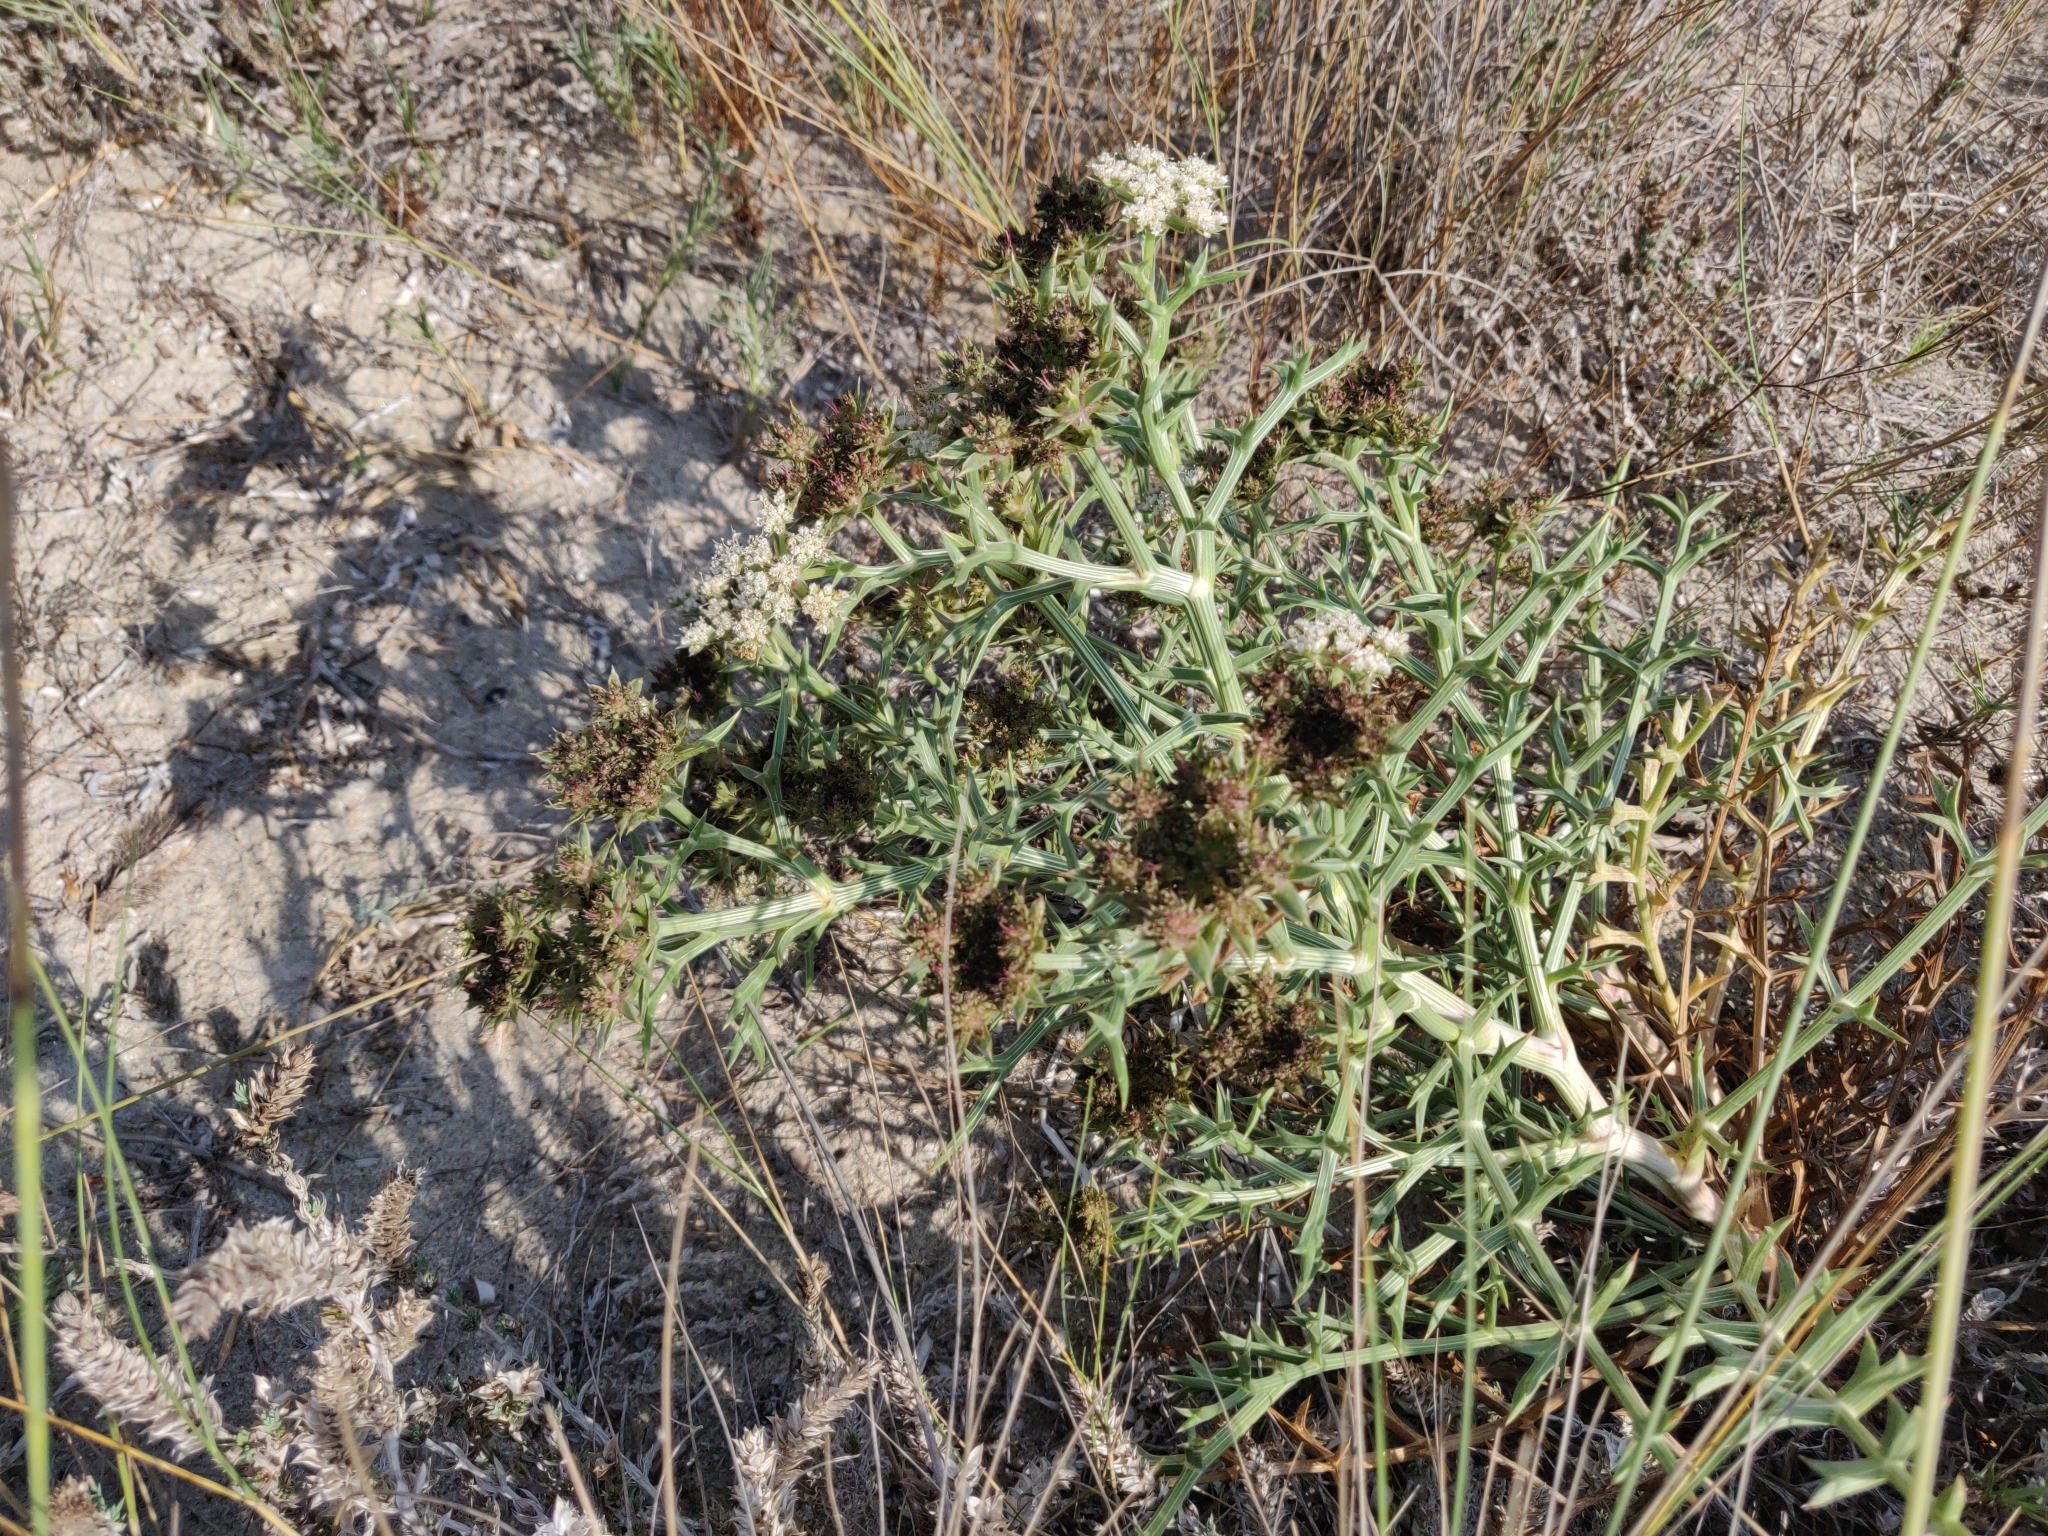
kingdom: Plantae
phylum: Tracheophyta
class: Magnoliopsida
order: Apiales
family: Apiaceae
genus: Echinophora
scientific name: Echinophora spinosa
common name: Prickly samphire
